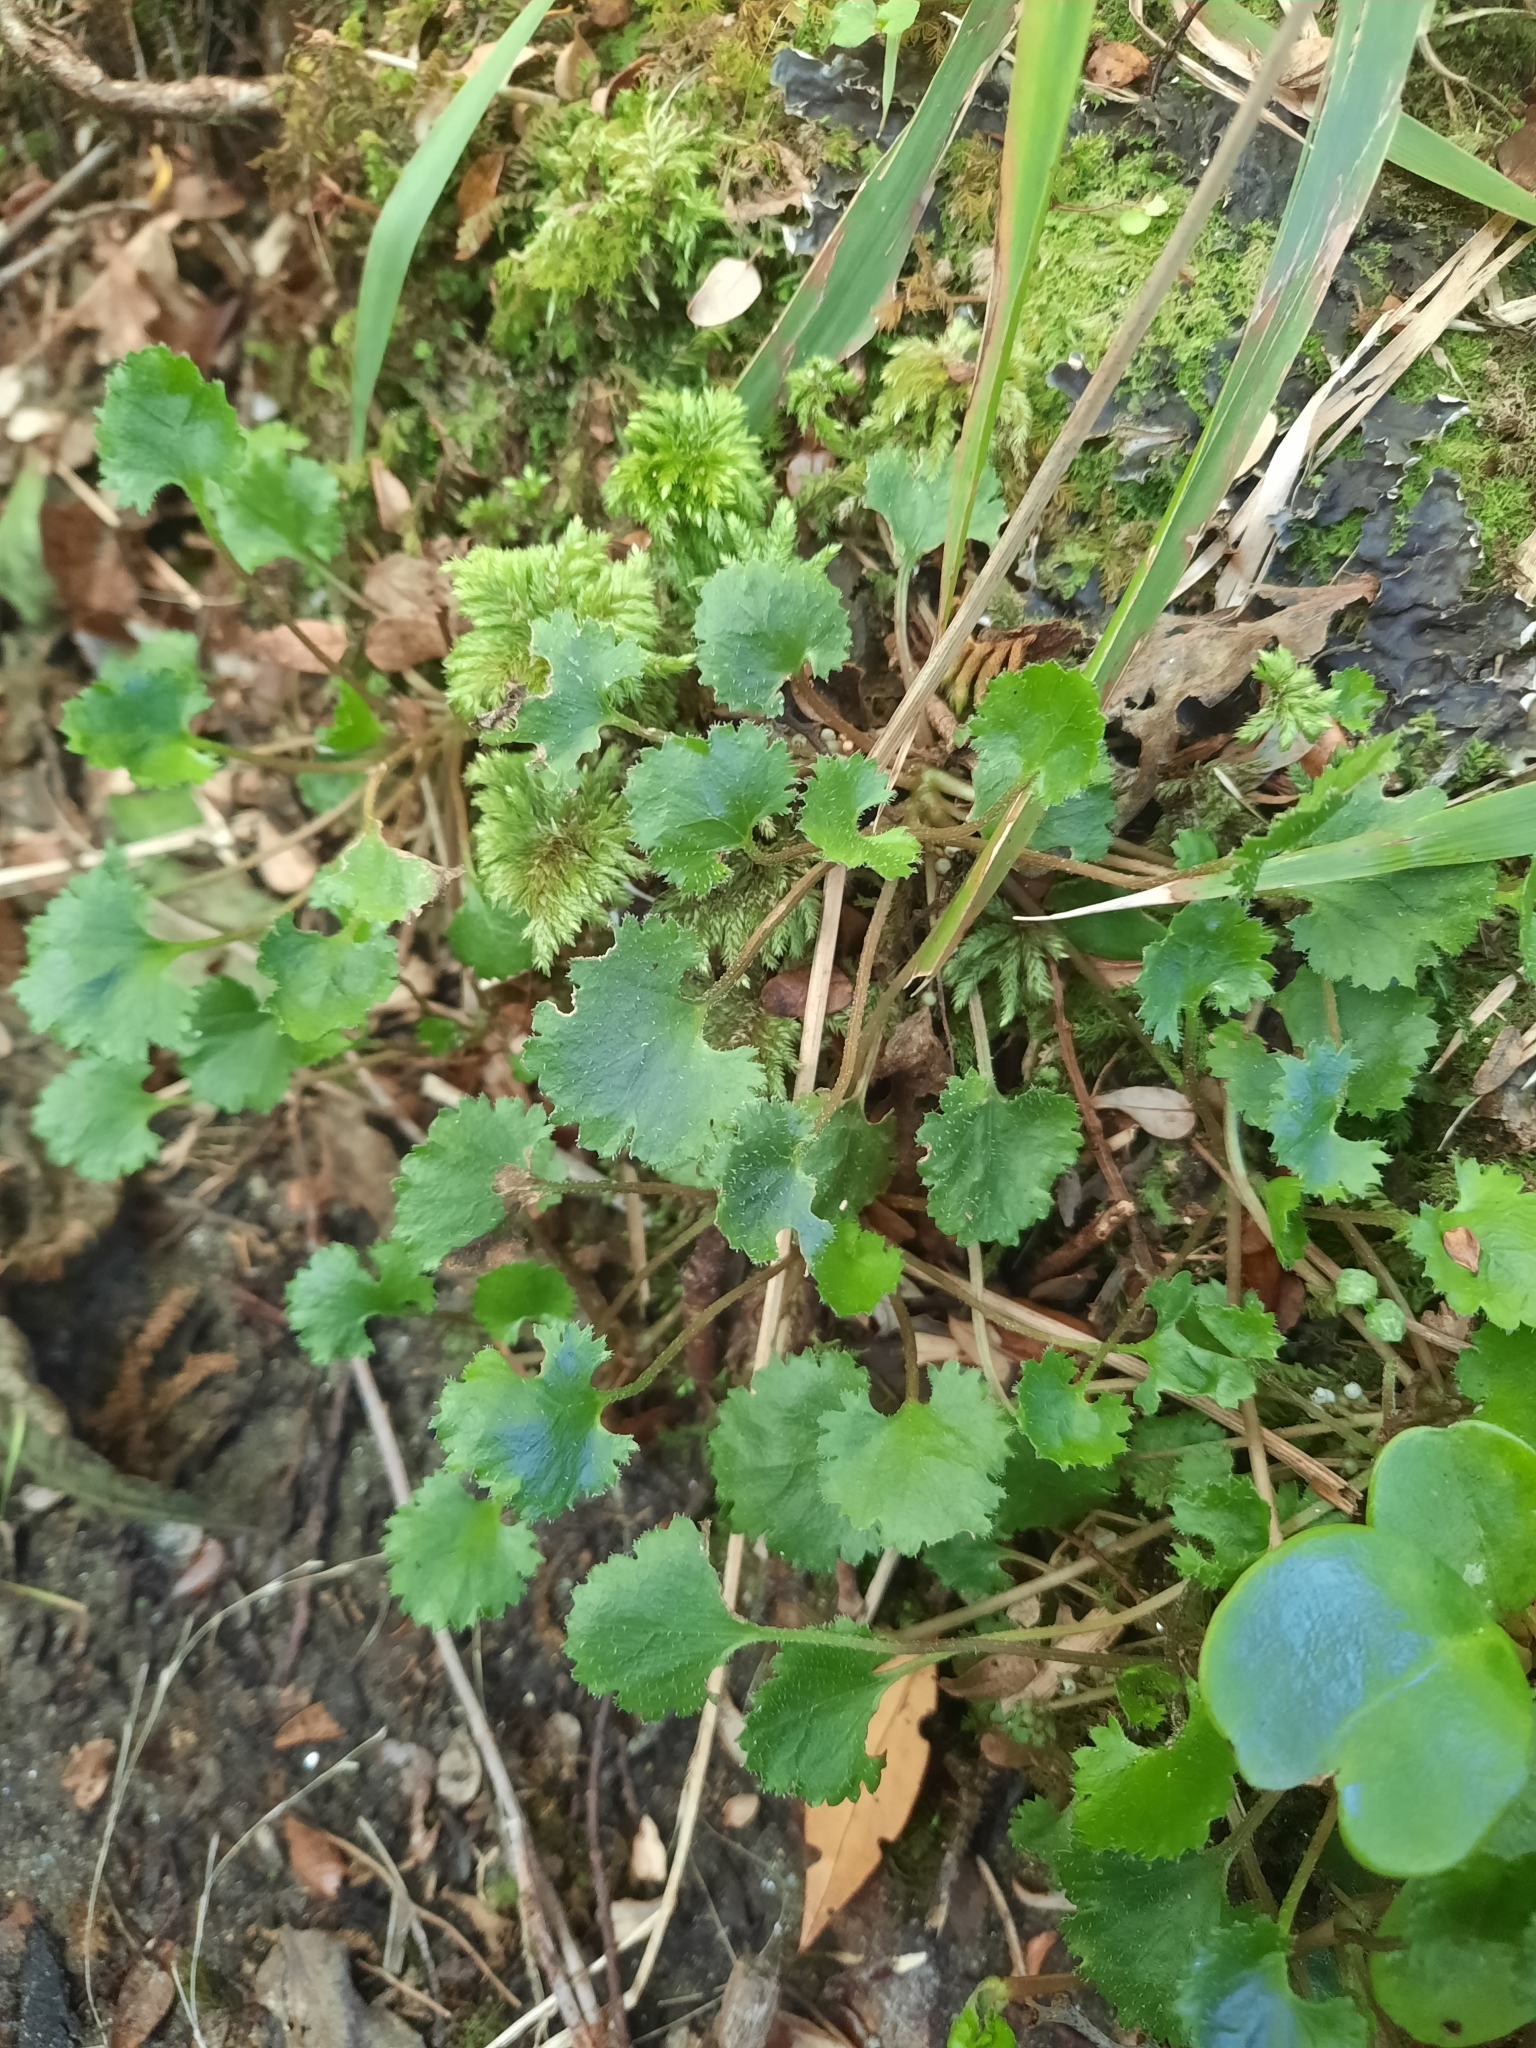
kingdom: Plantae
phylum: Tracheophyta
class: Magnoliopsida
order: Gunnerales
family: Gunneraceae
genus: Gunnera
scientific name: Gunnera monoica
